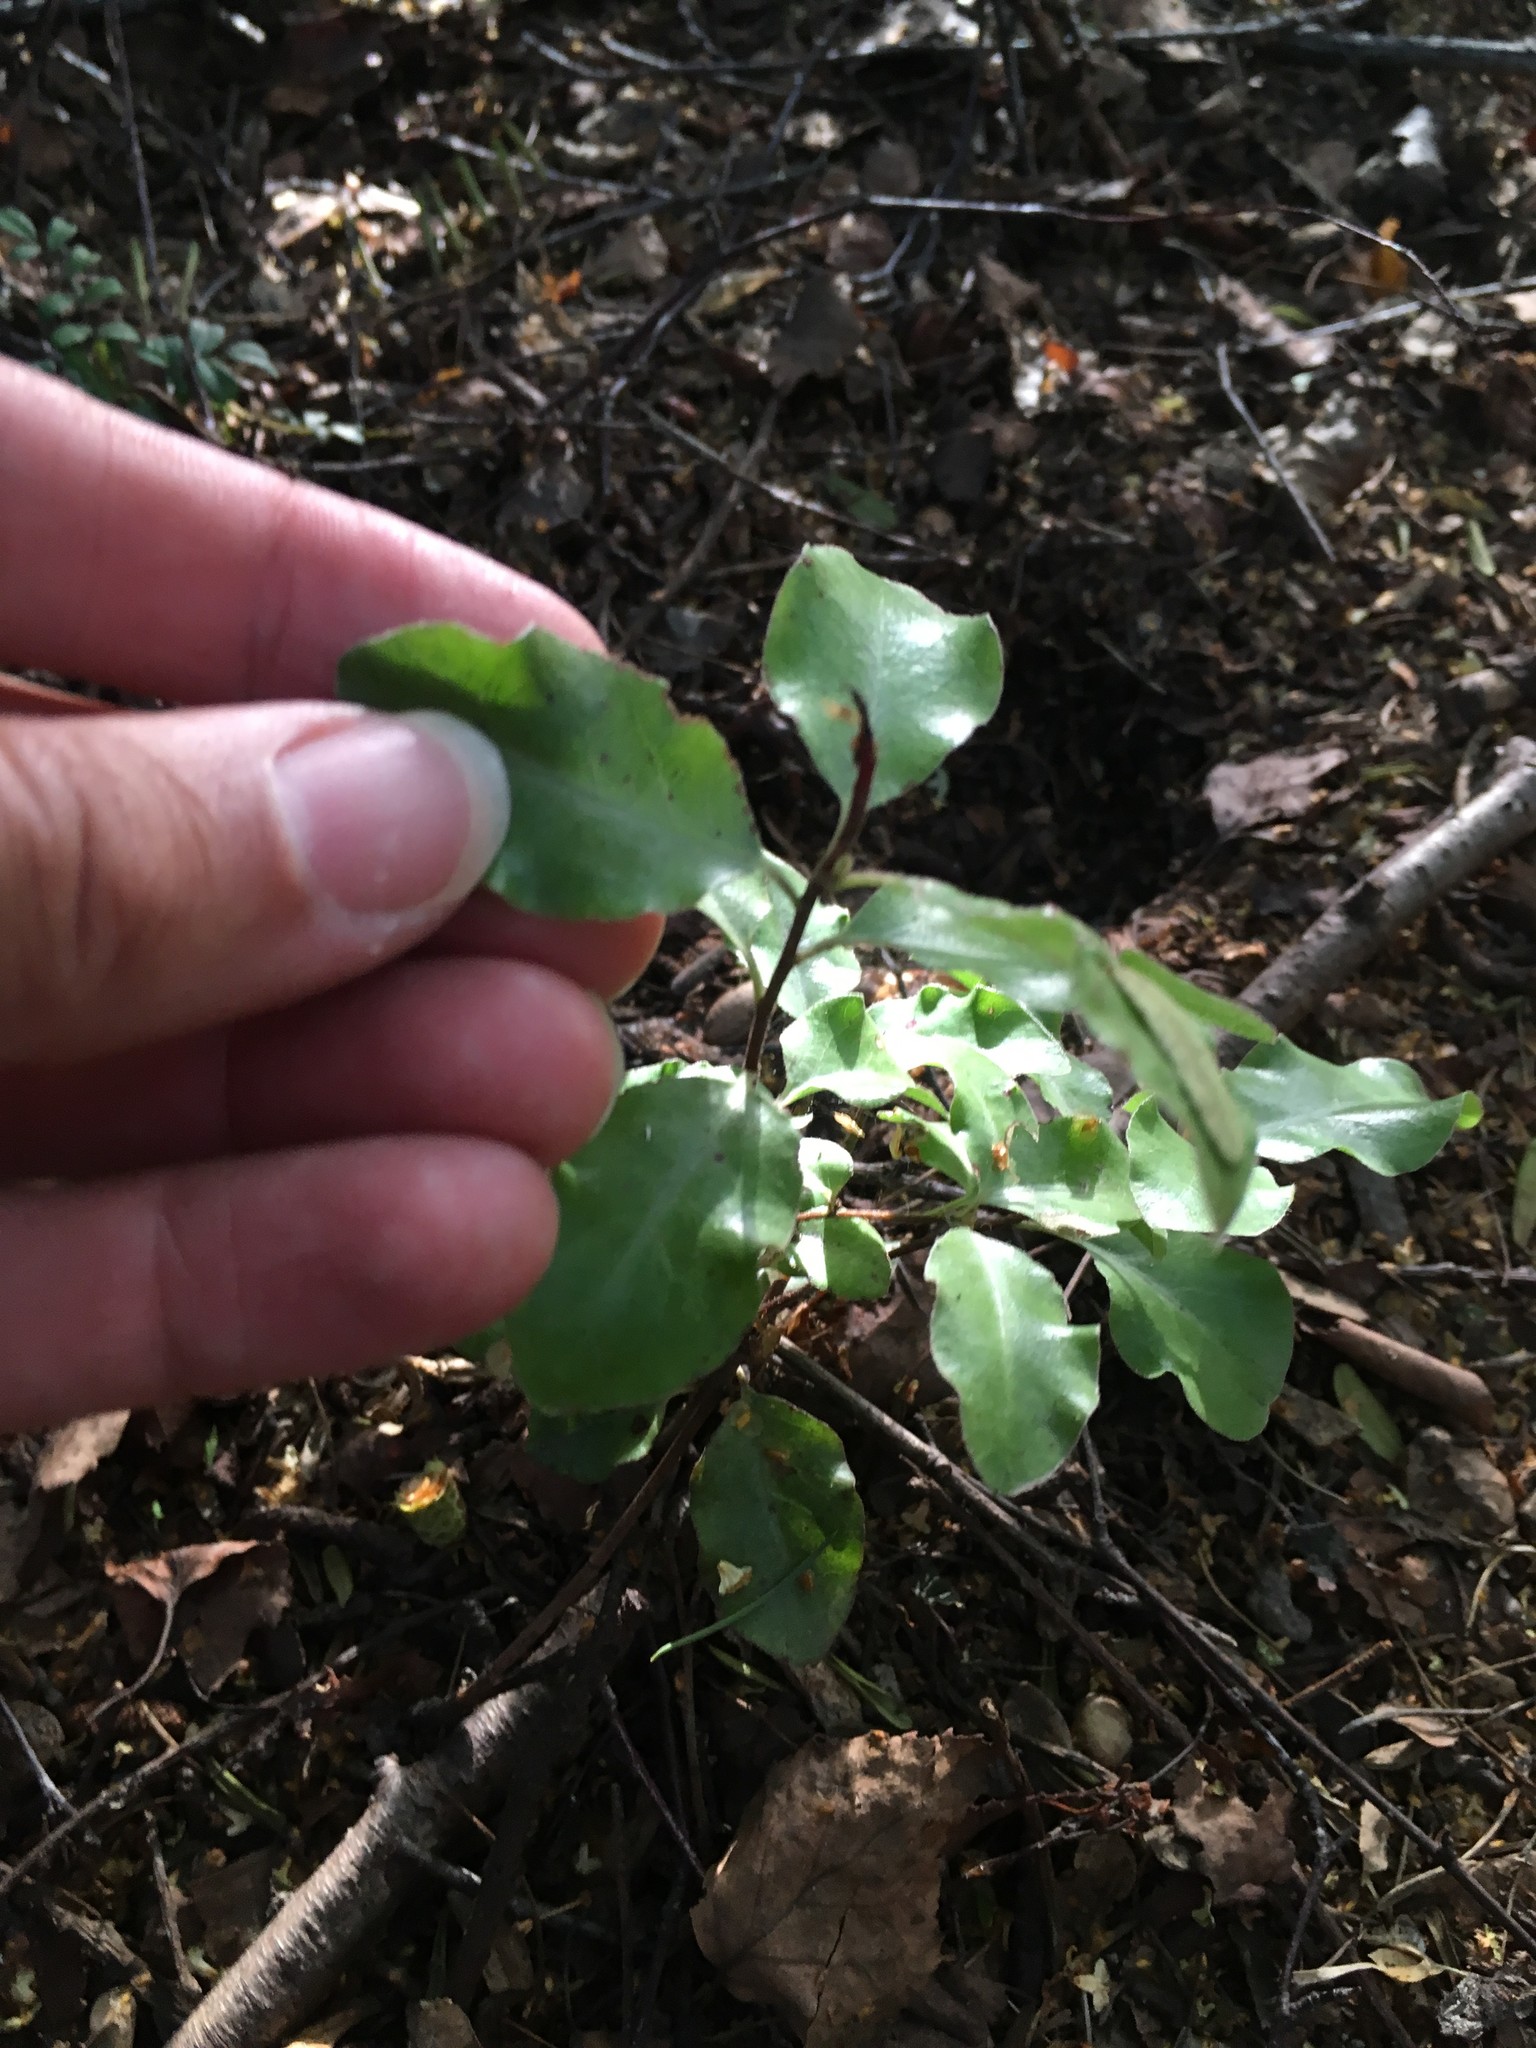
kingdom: Plantae
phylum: Tracheophyta
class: Magnoliopsida
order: Apiales
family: Pittosporaceae
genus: Pittosporum
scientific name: Pittosporum tenuifolium
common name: Kohuhu
